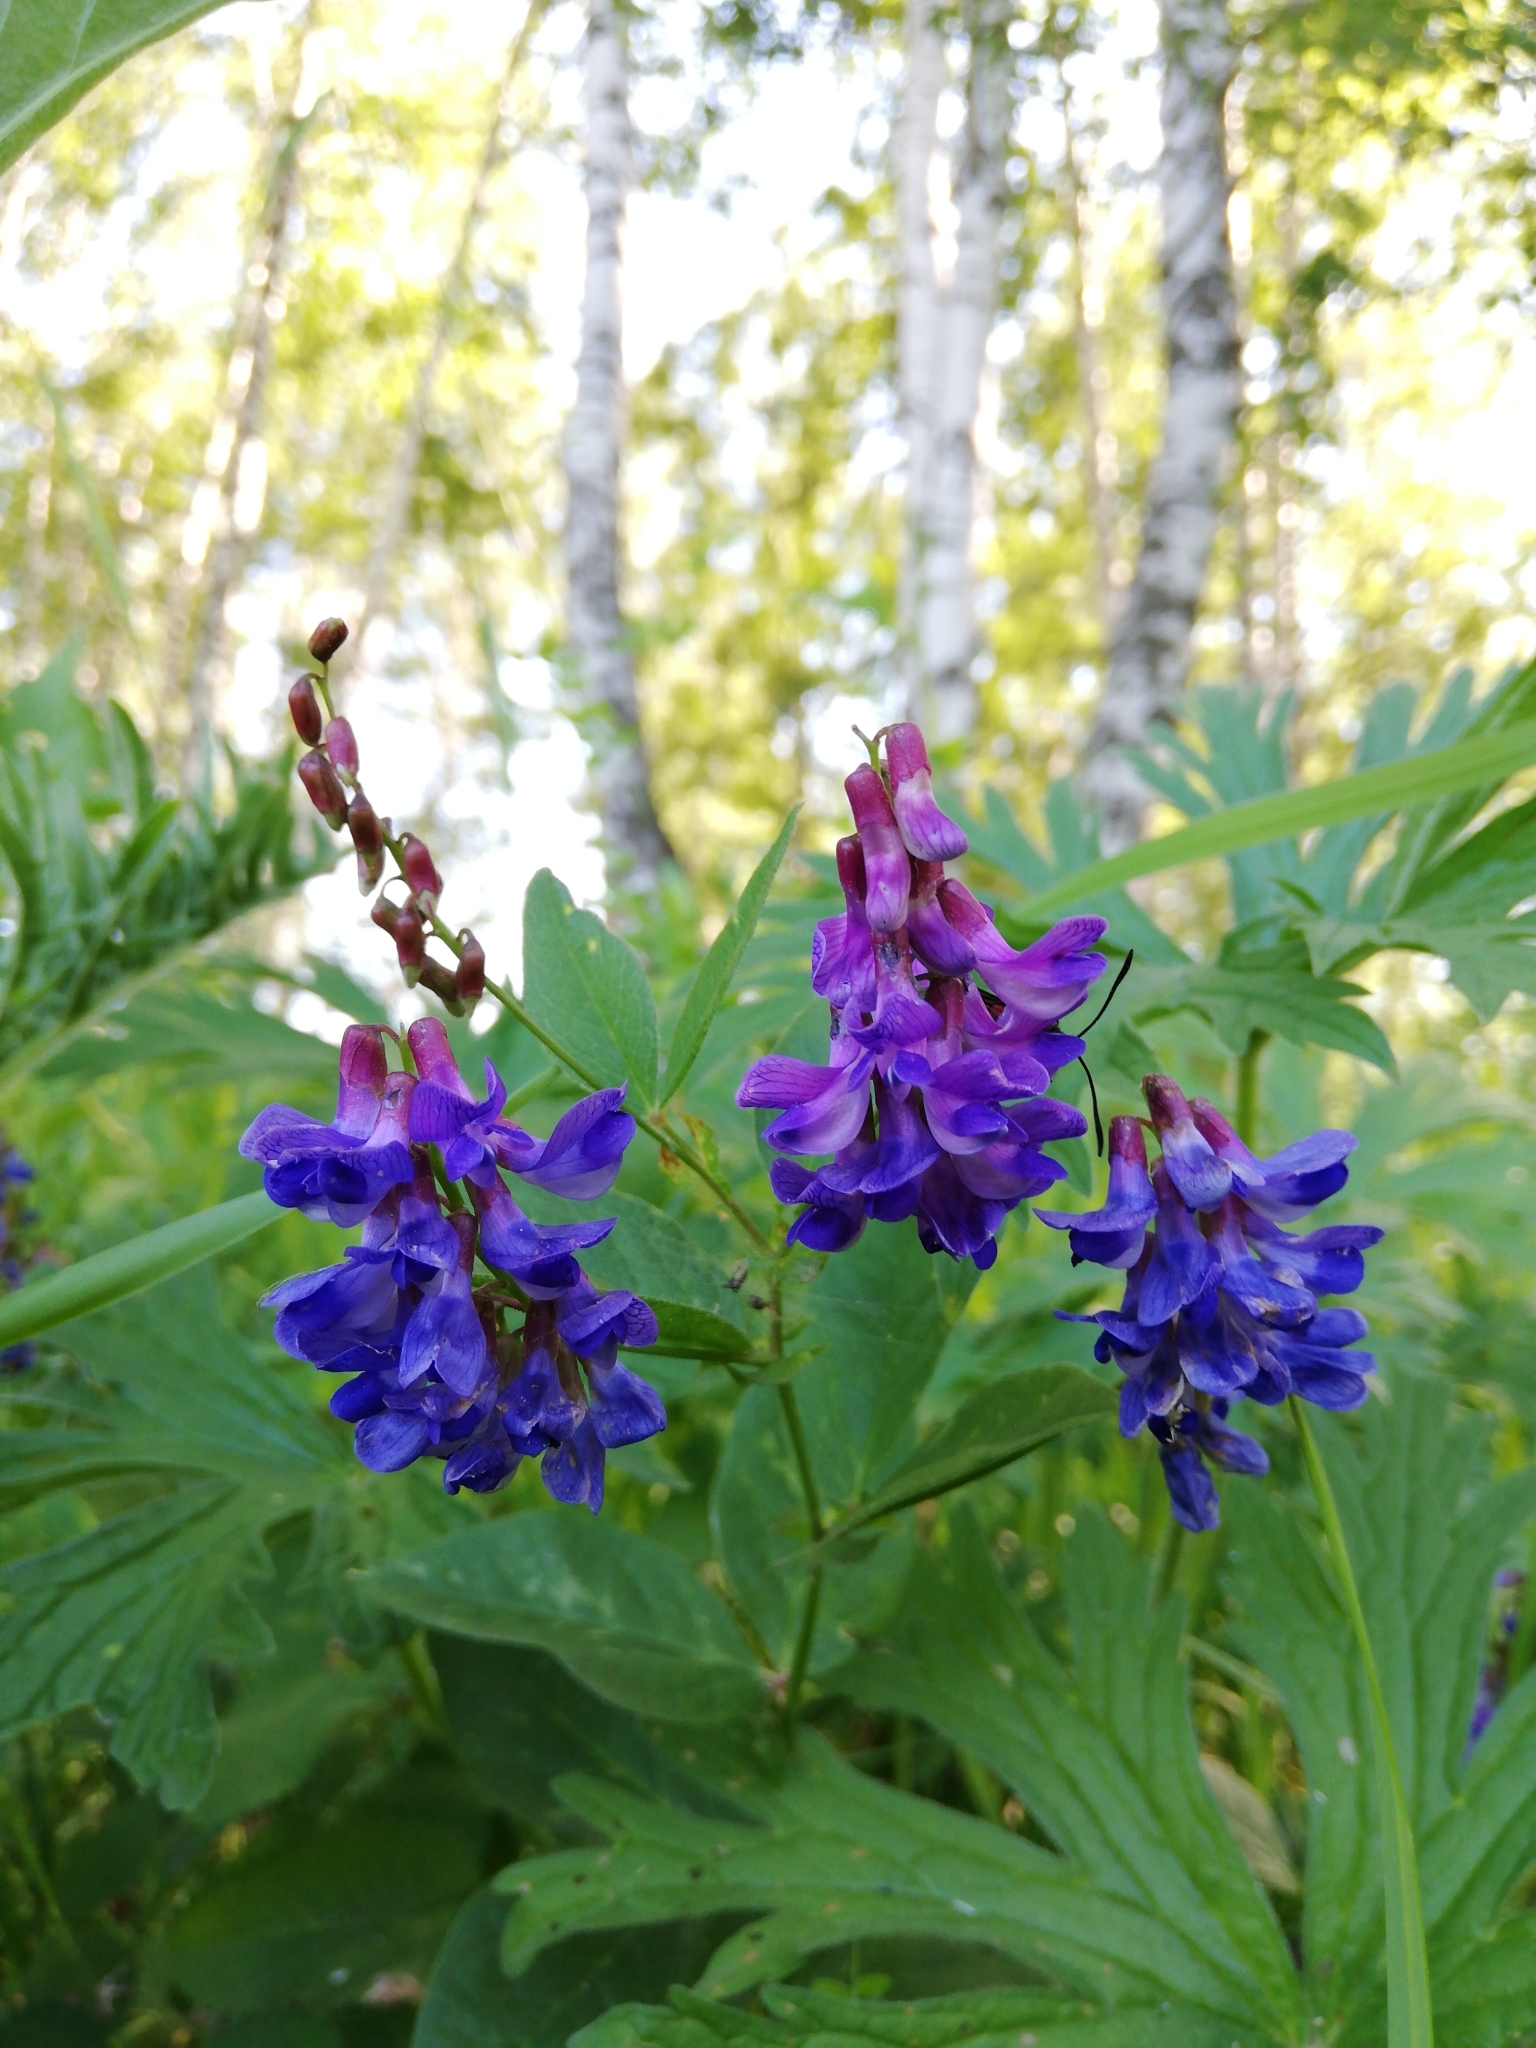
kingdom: Plantae
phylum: Tracheophyta
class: Magnoliopsida
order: Fabales
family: Fabaceae
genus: Vicia
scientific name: Vicia unijuga
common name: Two-leaf vetch
